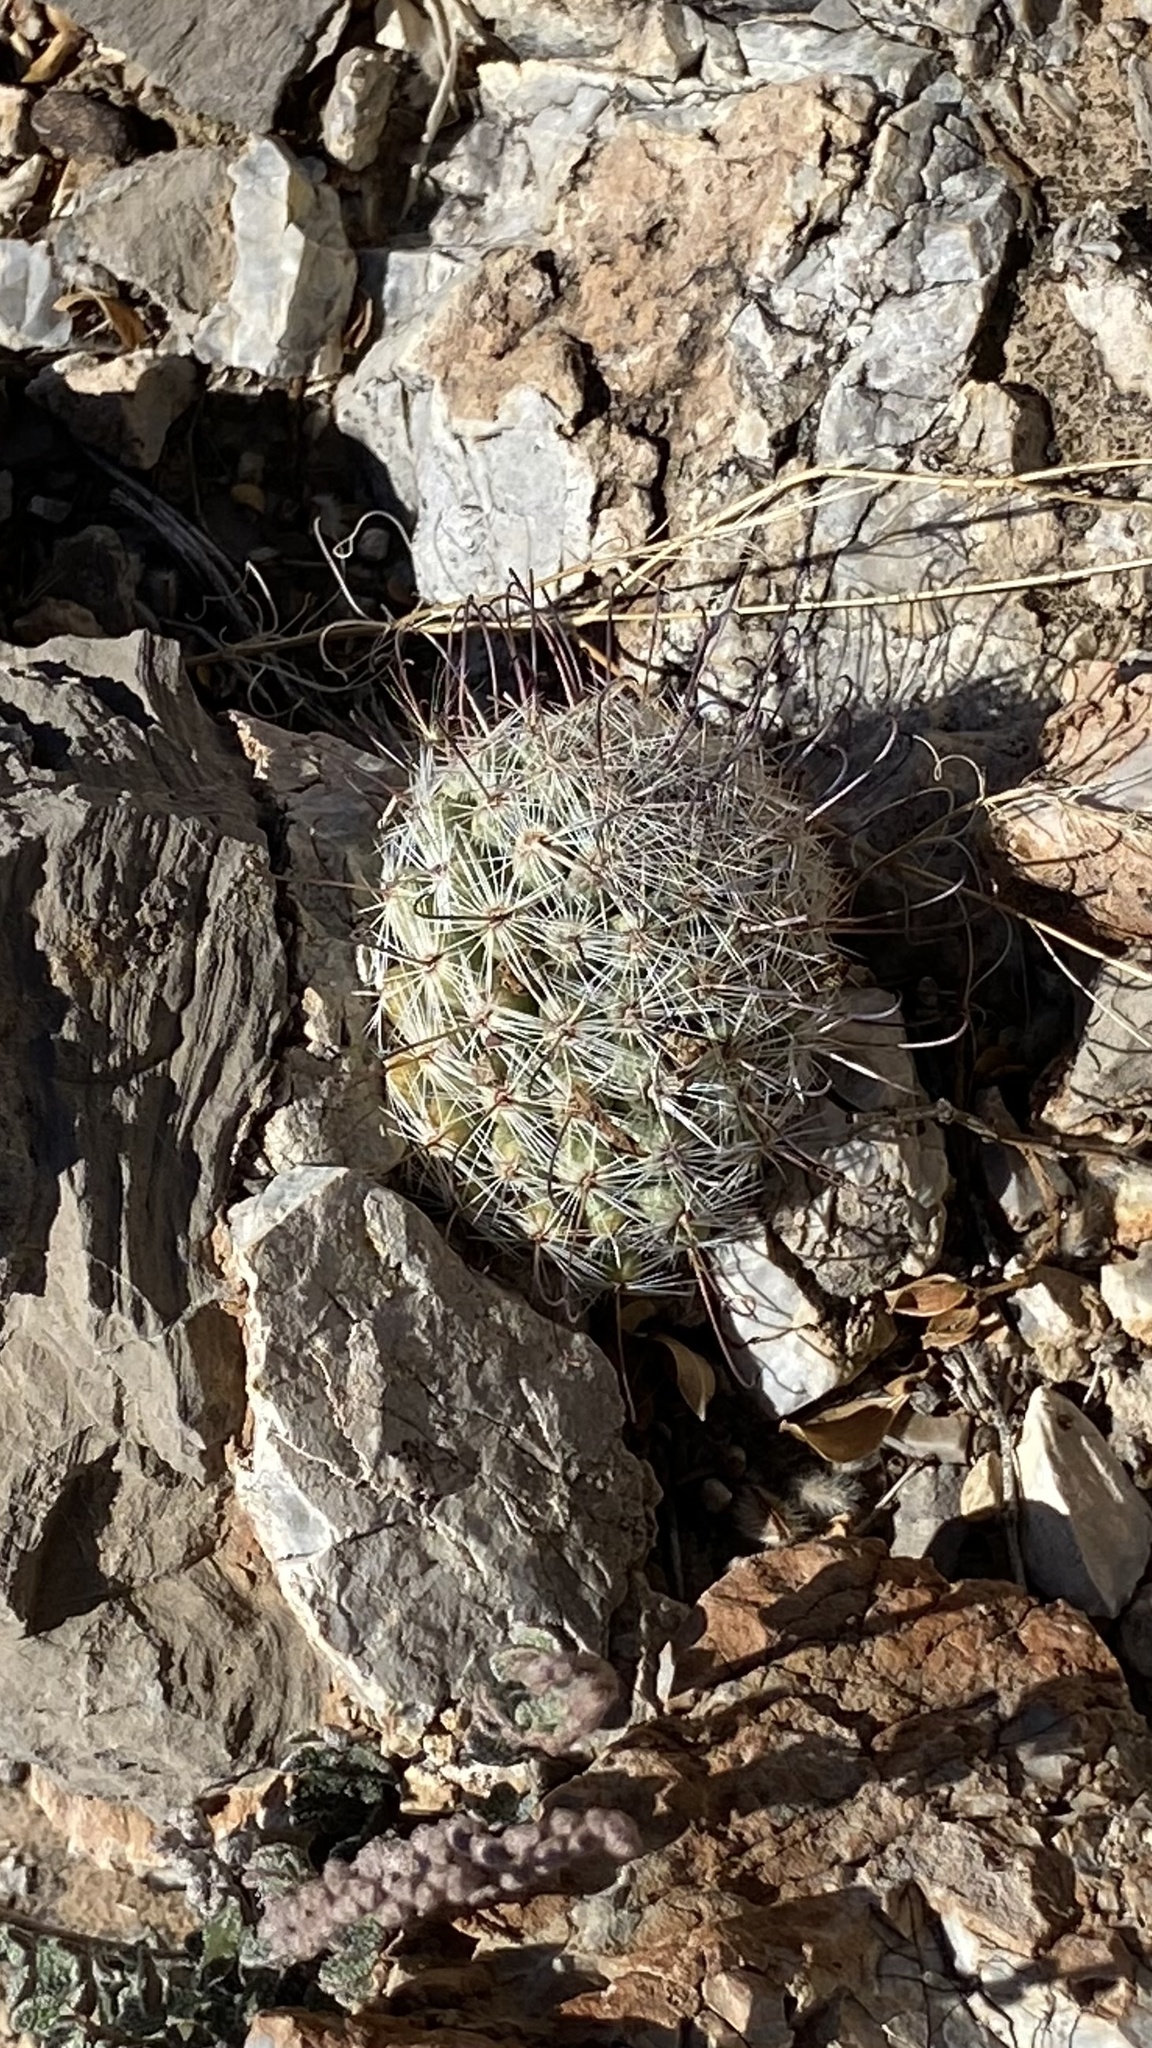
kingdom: Plantae
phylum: Tracheophyta
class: Magnoliopsida
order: Caryophyllales
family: Cactaceae
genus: Cochemiea
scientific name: Cochemiea grahamii
